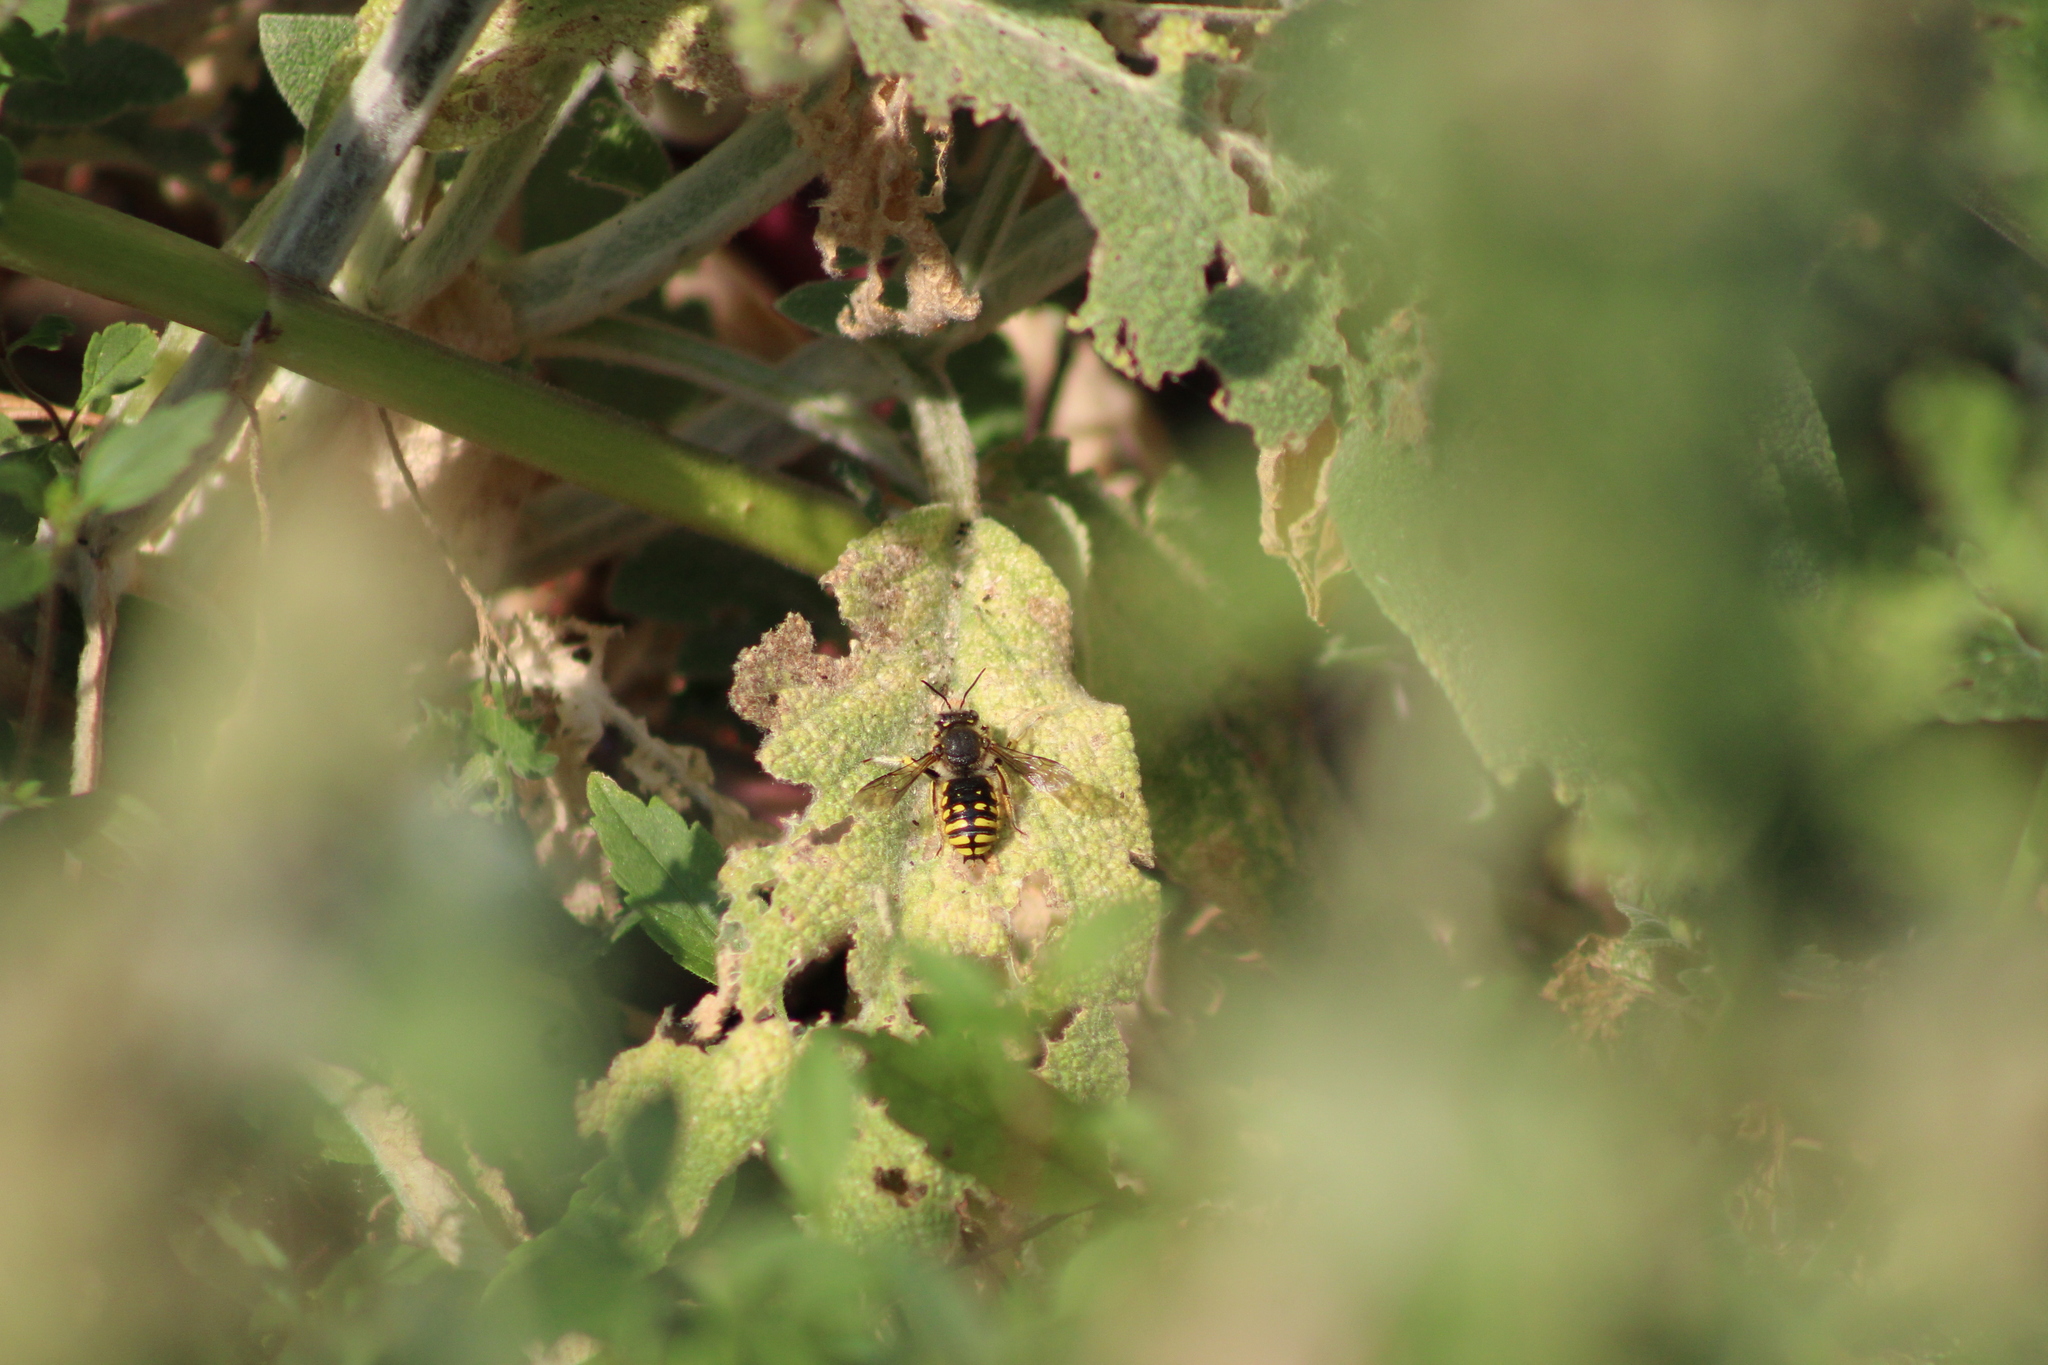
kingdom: Animalia
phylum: Arthropoda
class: Insecta
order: Hymenoptera
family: Megachilidae
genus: Anthidium
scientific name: Anthidium manicatum
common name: Wool carder bee
